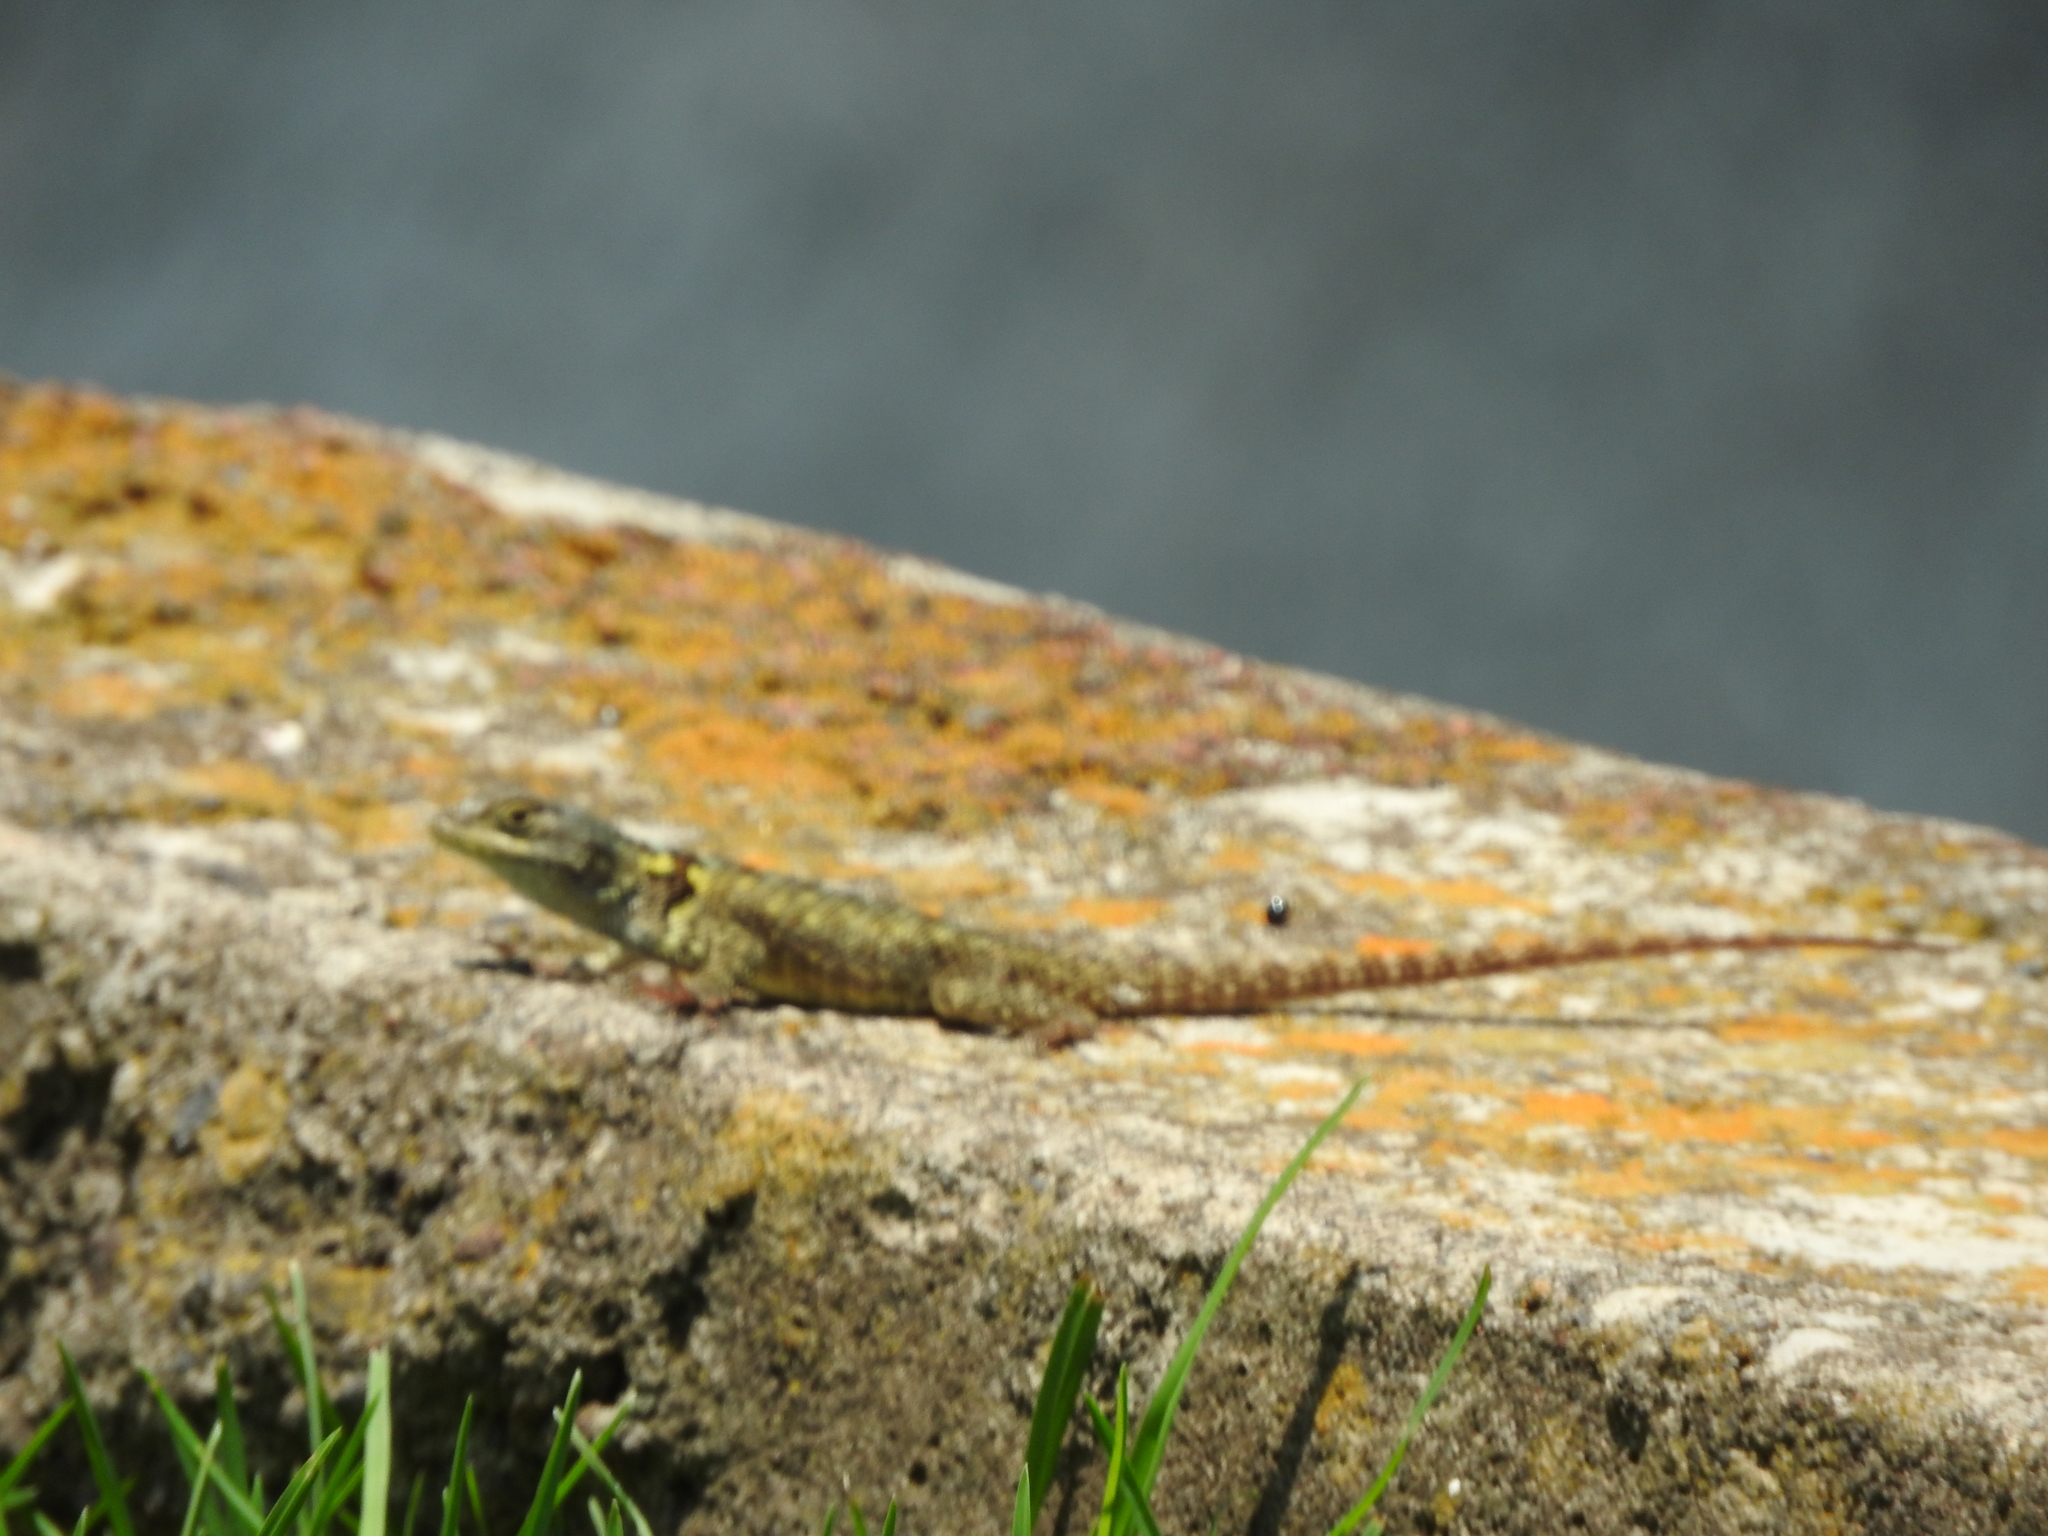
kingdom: Animalia
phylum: Chordata
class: Squamata
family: Phrynosomatidae
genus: Sceloporus
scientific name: Sceloporus torquatus
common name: Central plateau torquate lizard [melanogaster]
